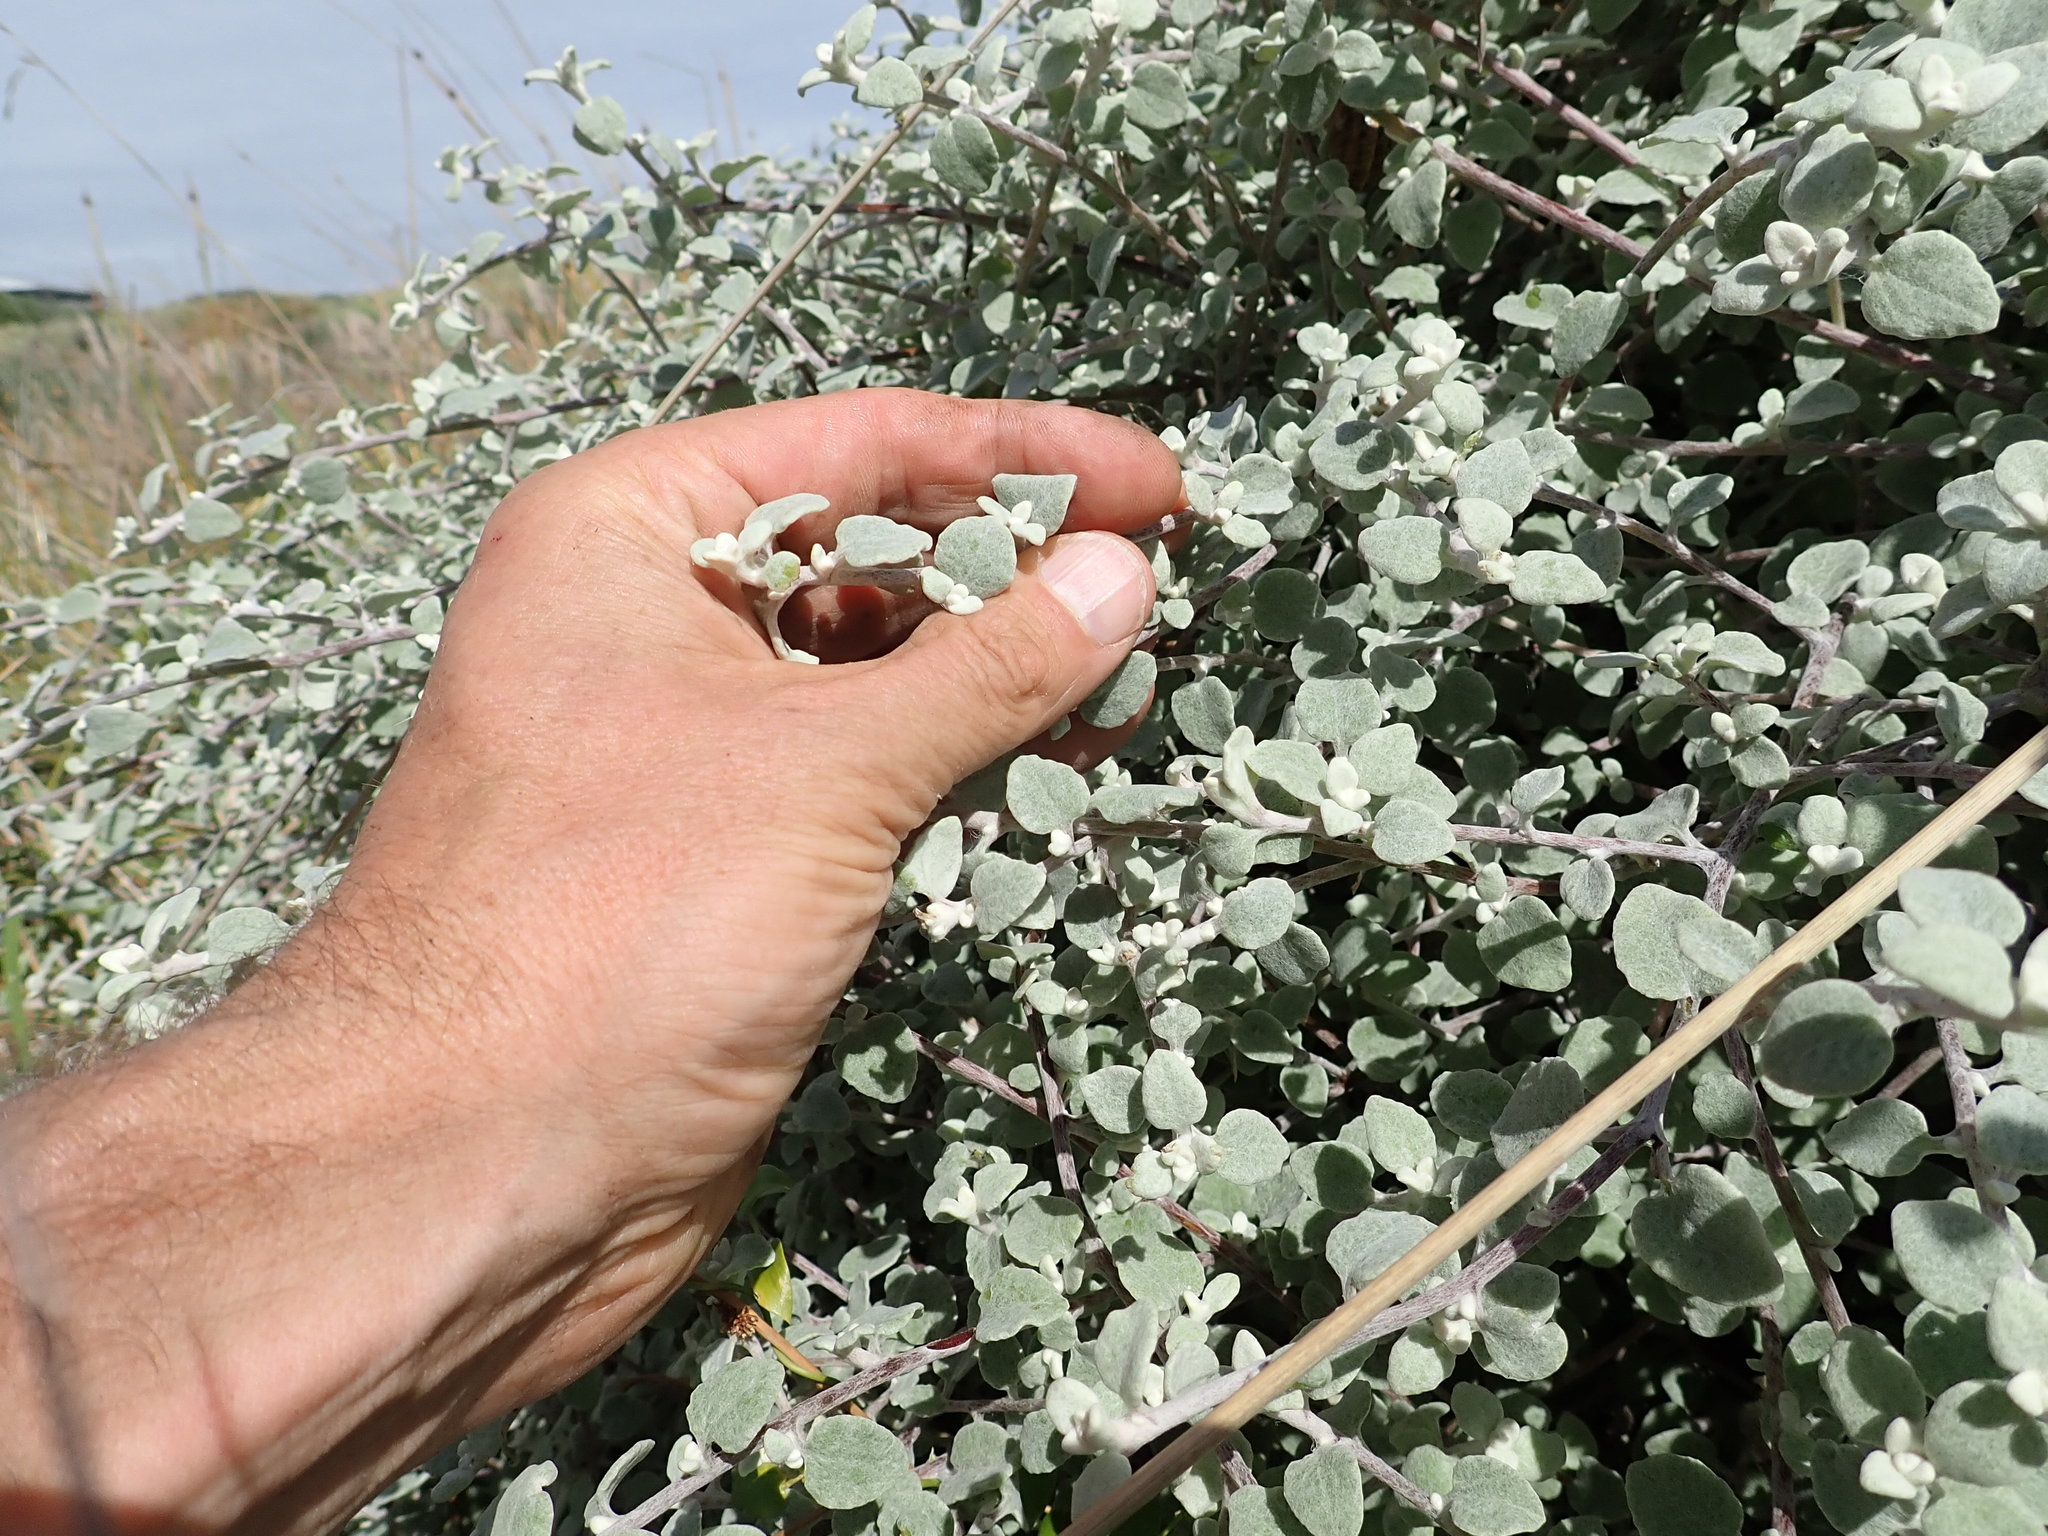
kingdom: Plantae
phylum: Tracheophyta
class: Magnoliopsida
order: Asterales
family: Asteraceae
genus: Helichrysum
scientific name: Helichrysum petiolare
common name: Licorice-plant
